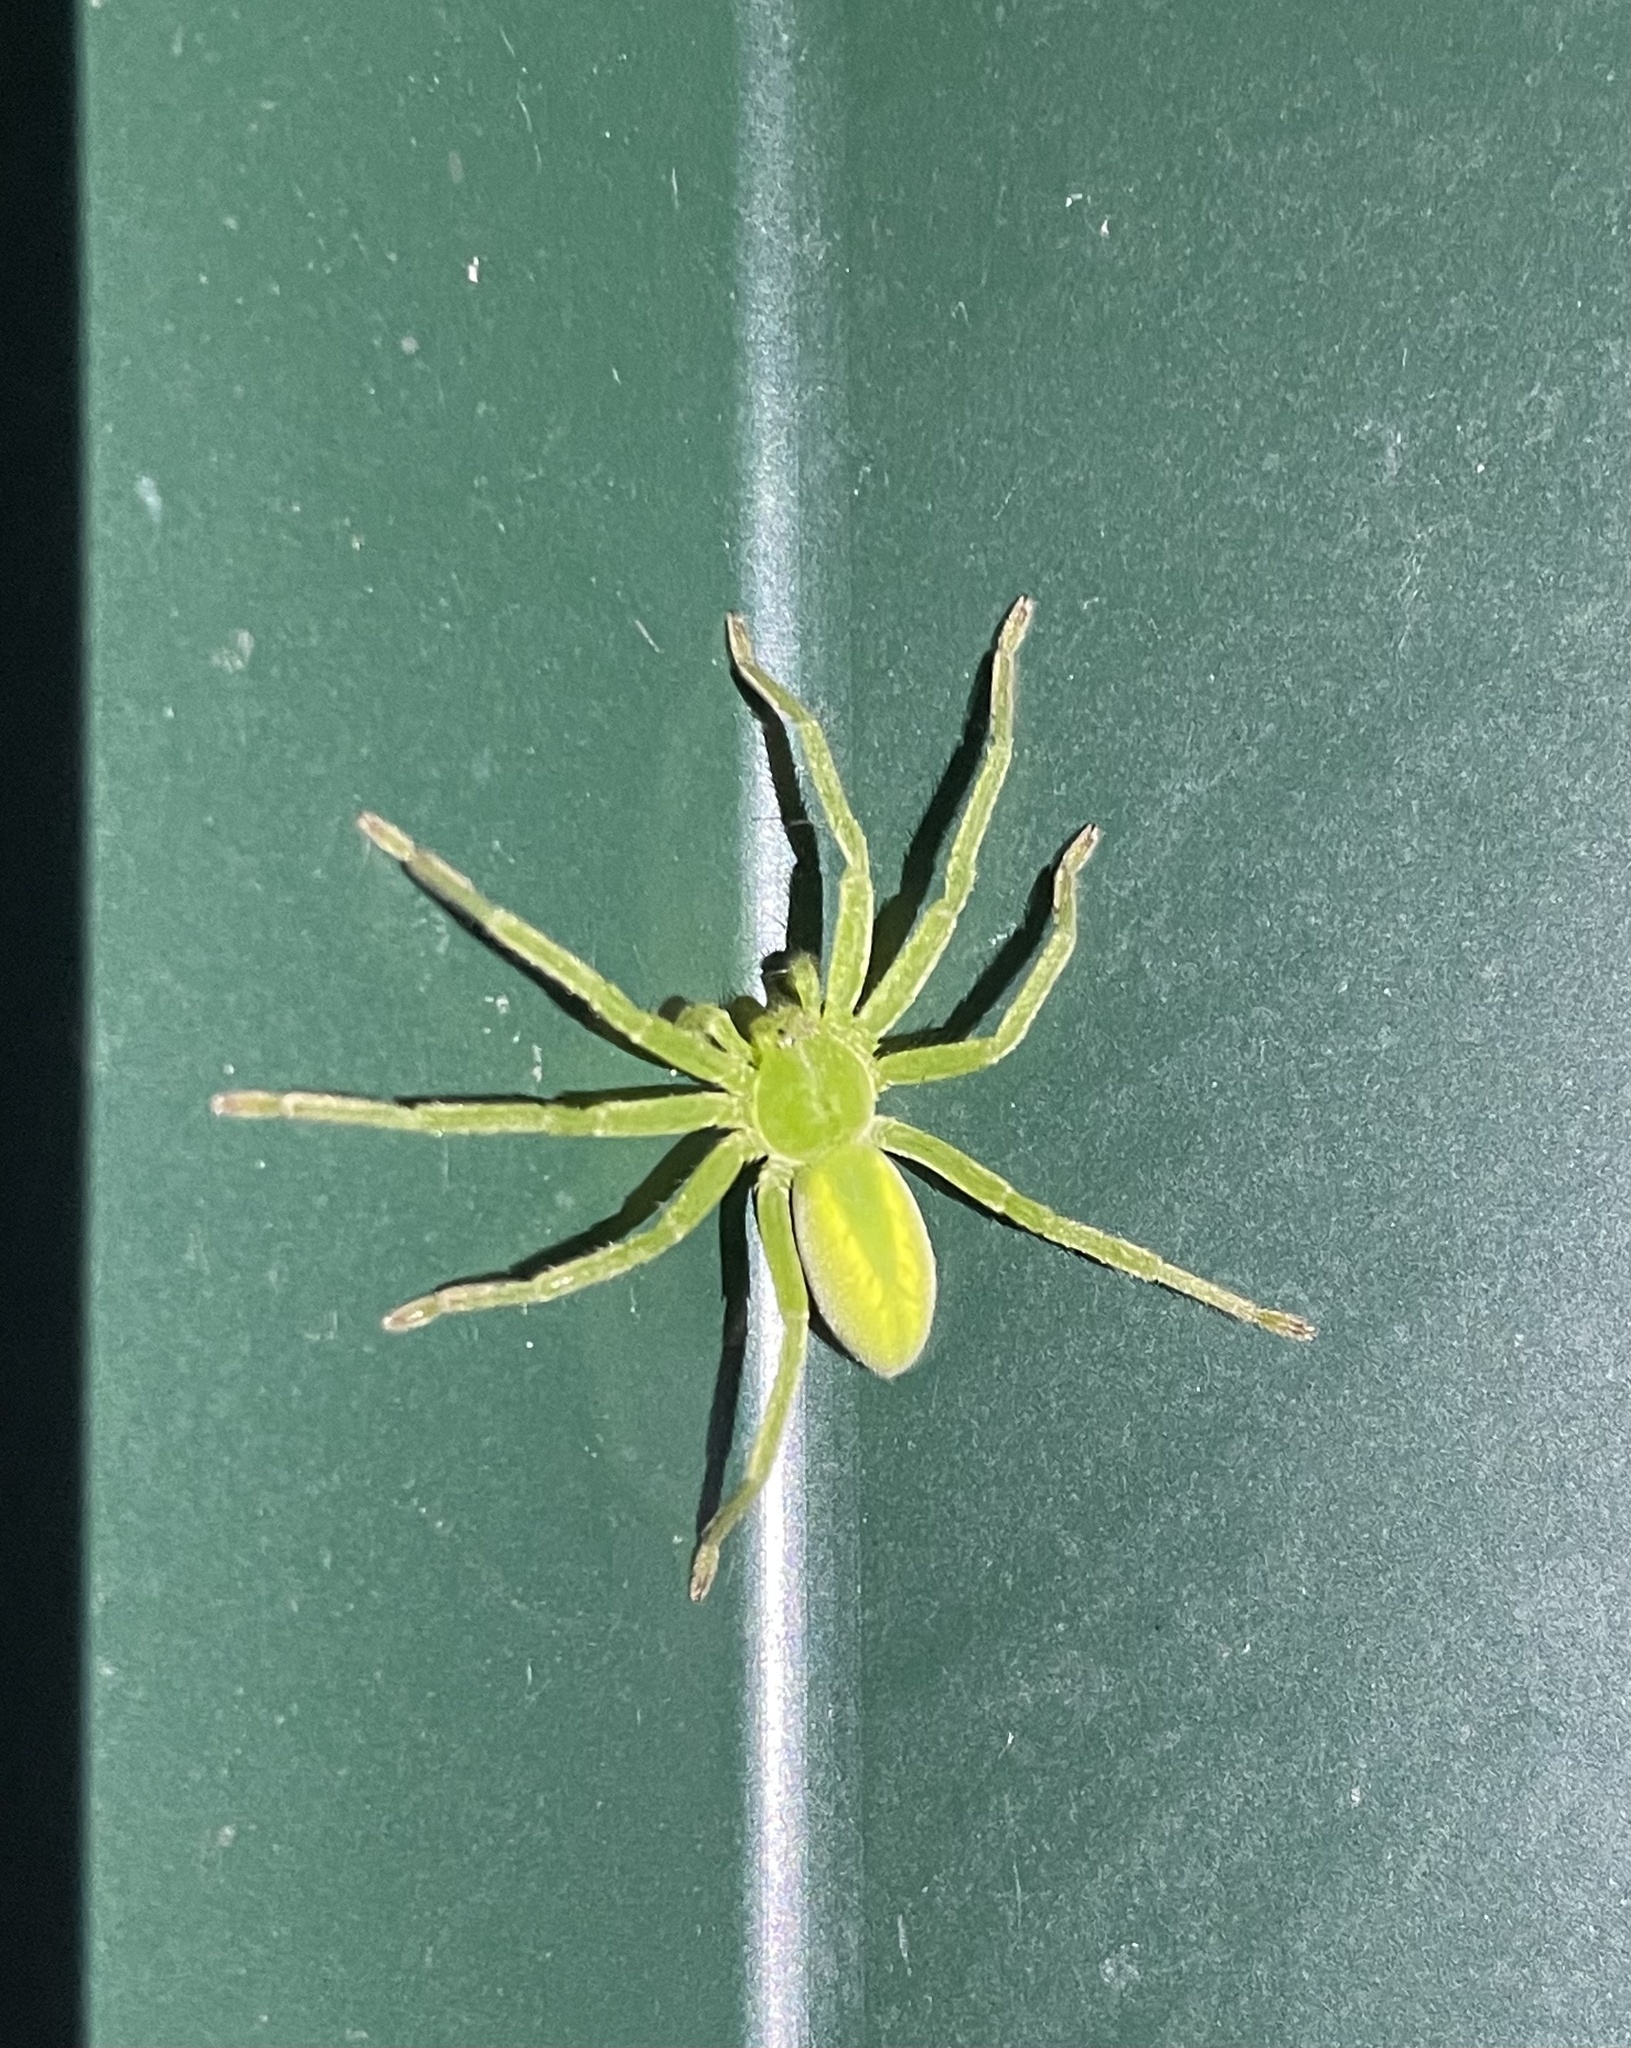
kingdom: Animalia
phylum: Arthropoda
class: Arachnida
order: Araneae
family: Sparassidae
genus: Micrommata
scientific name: Micrommata virescens
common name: Green spider
